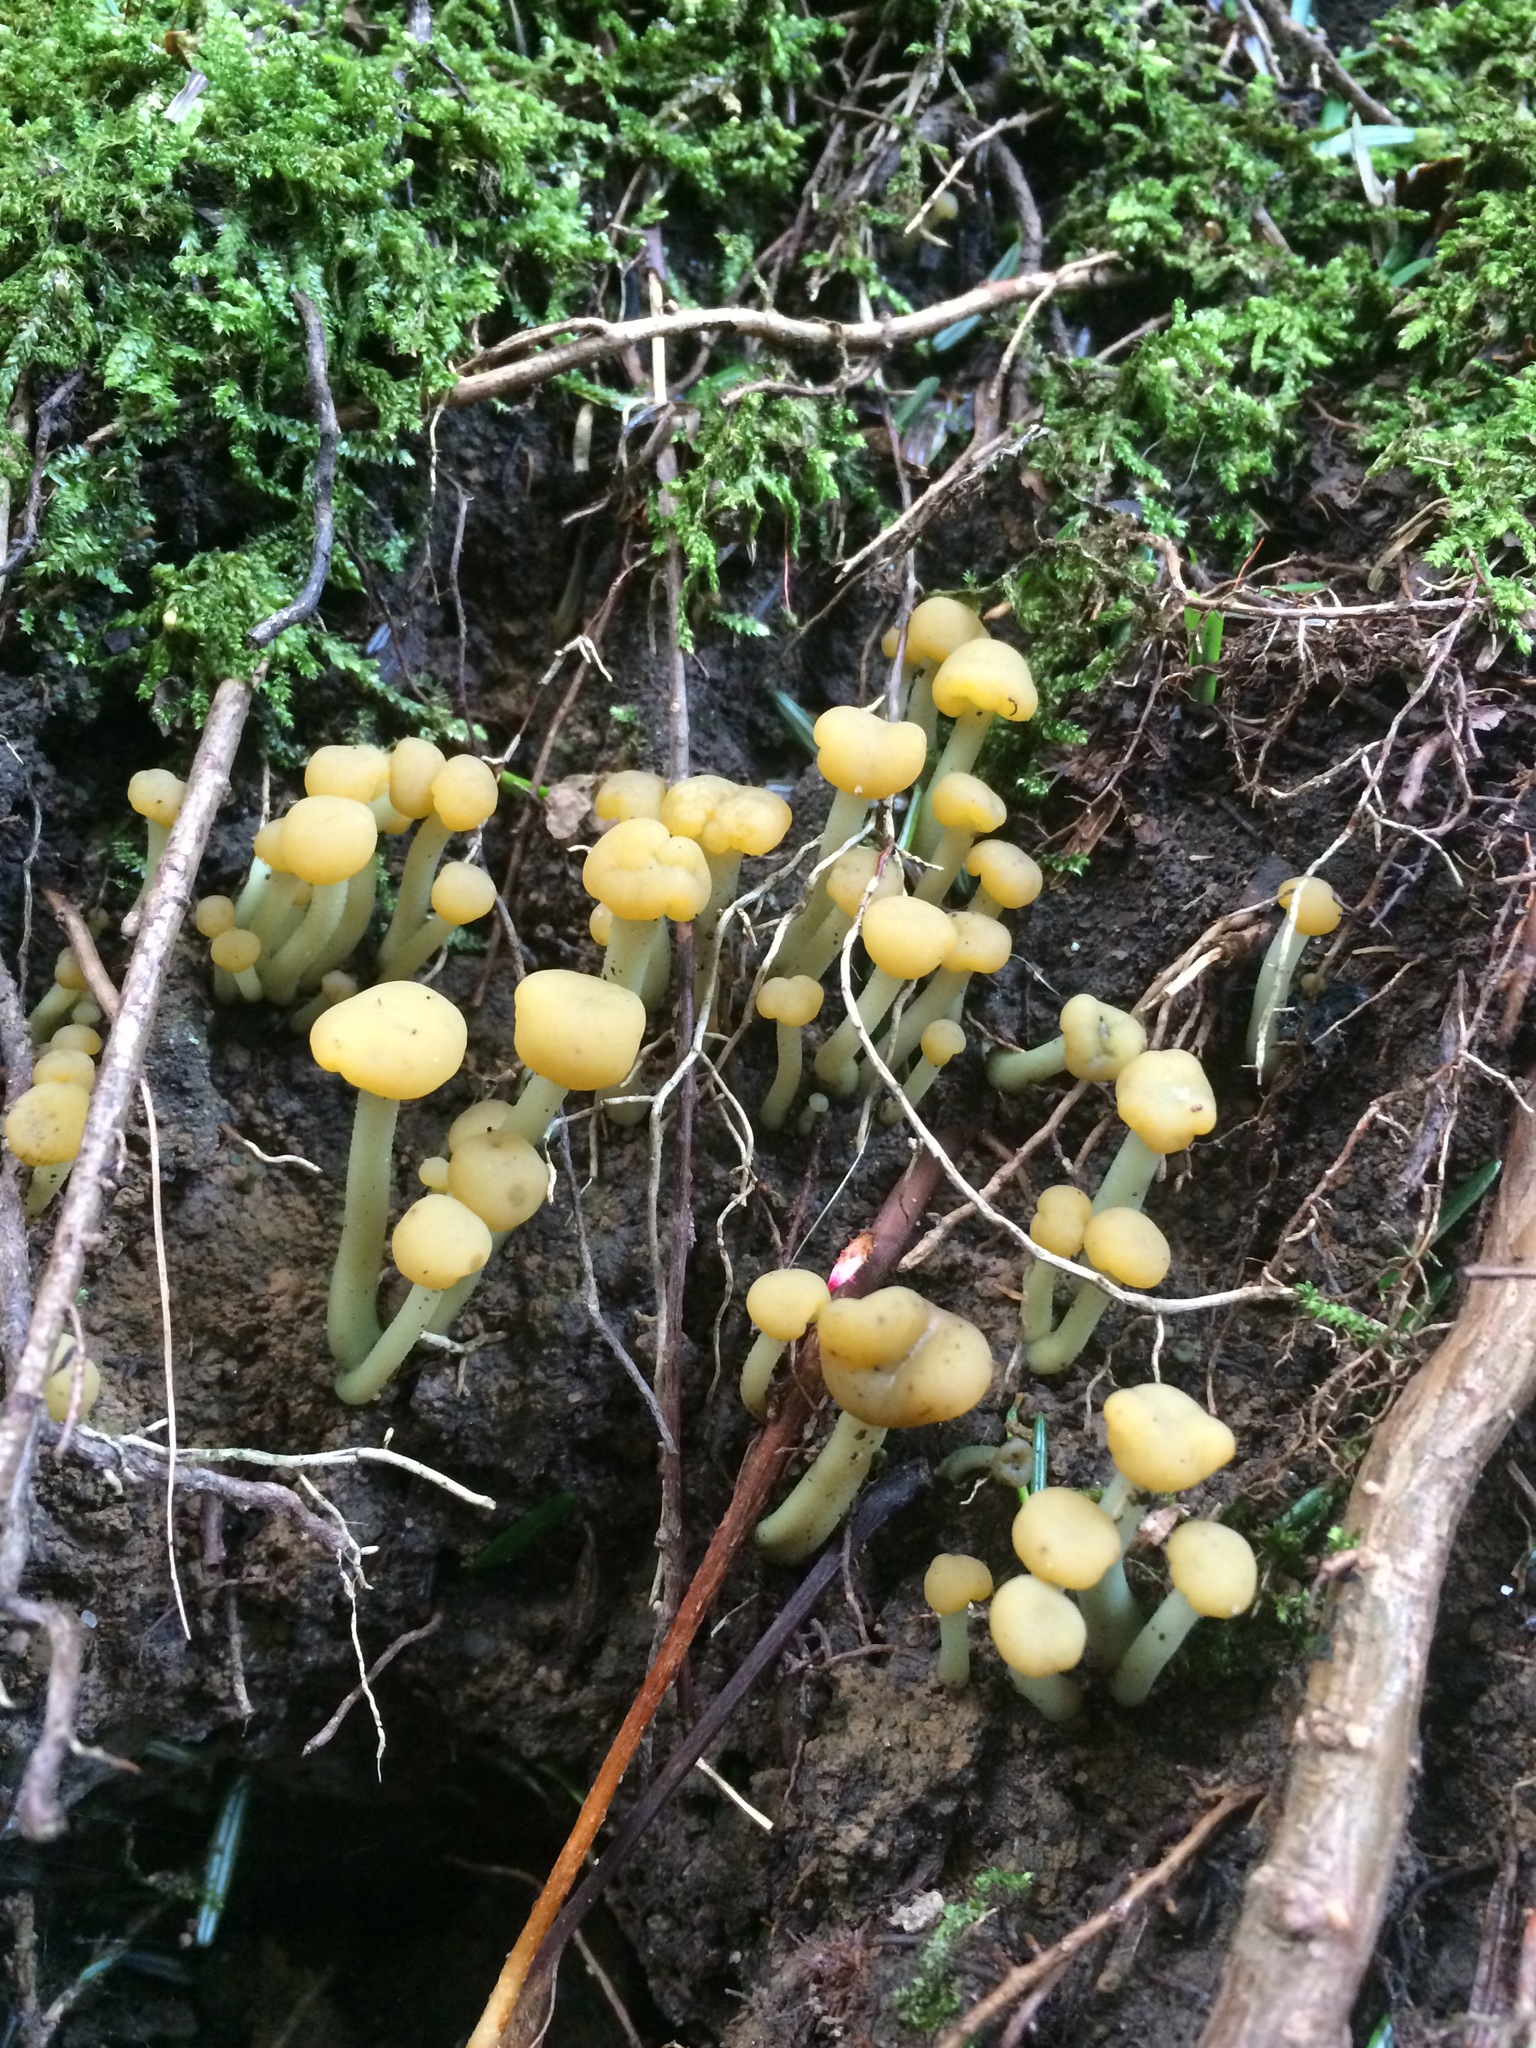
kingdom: Fungi
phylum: Ascomycota
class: Leotiomycetes
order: Leotiales
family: Leotiaceae
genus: Leotia
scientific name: Leotia lubrica
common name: Jellybaby
